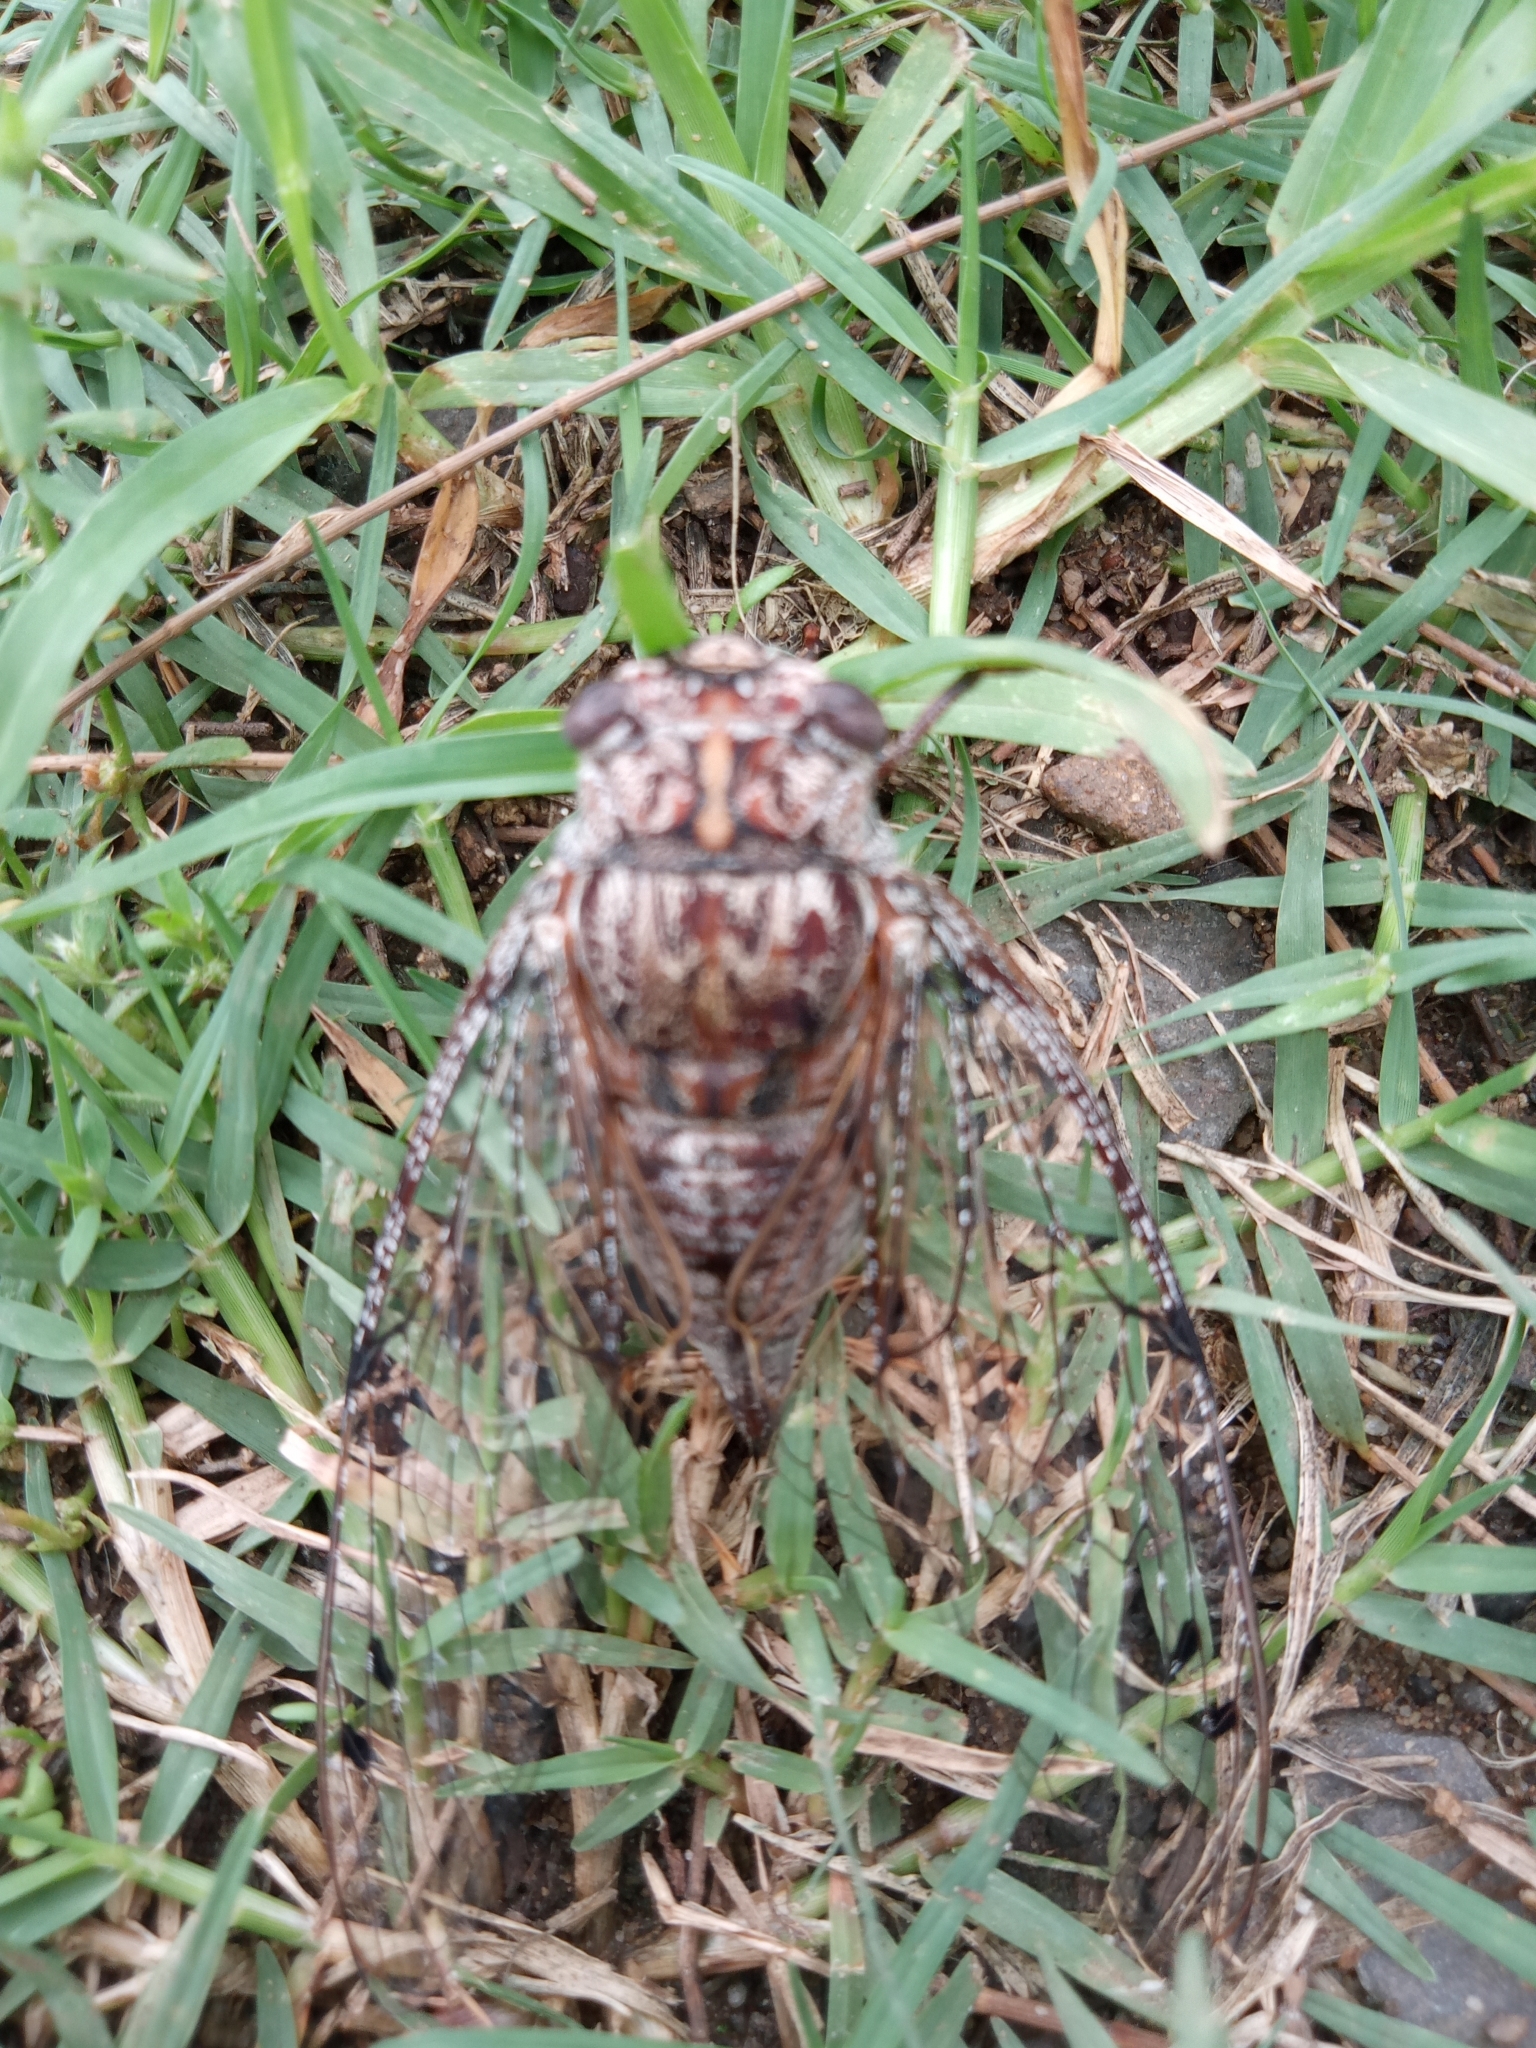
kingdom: Animalia
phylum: Arthropoda
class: Insecta
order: Hemiptera
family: Cicadidae
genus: Aleeta
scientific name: Aleeta curvicosta
